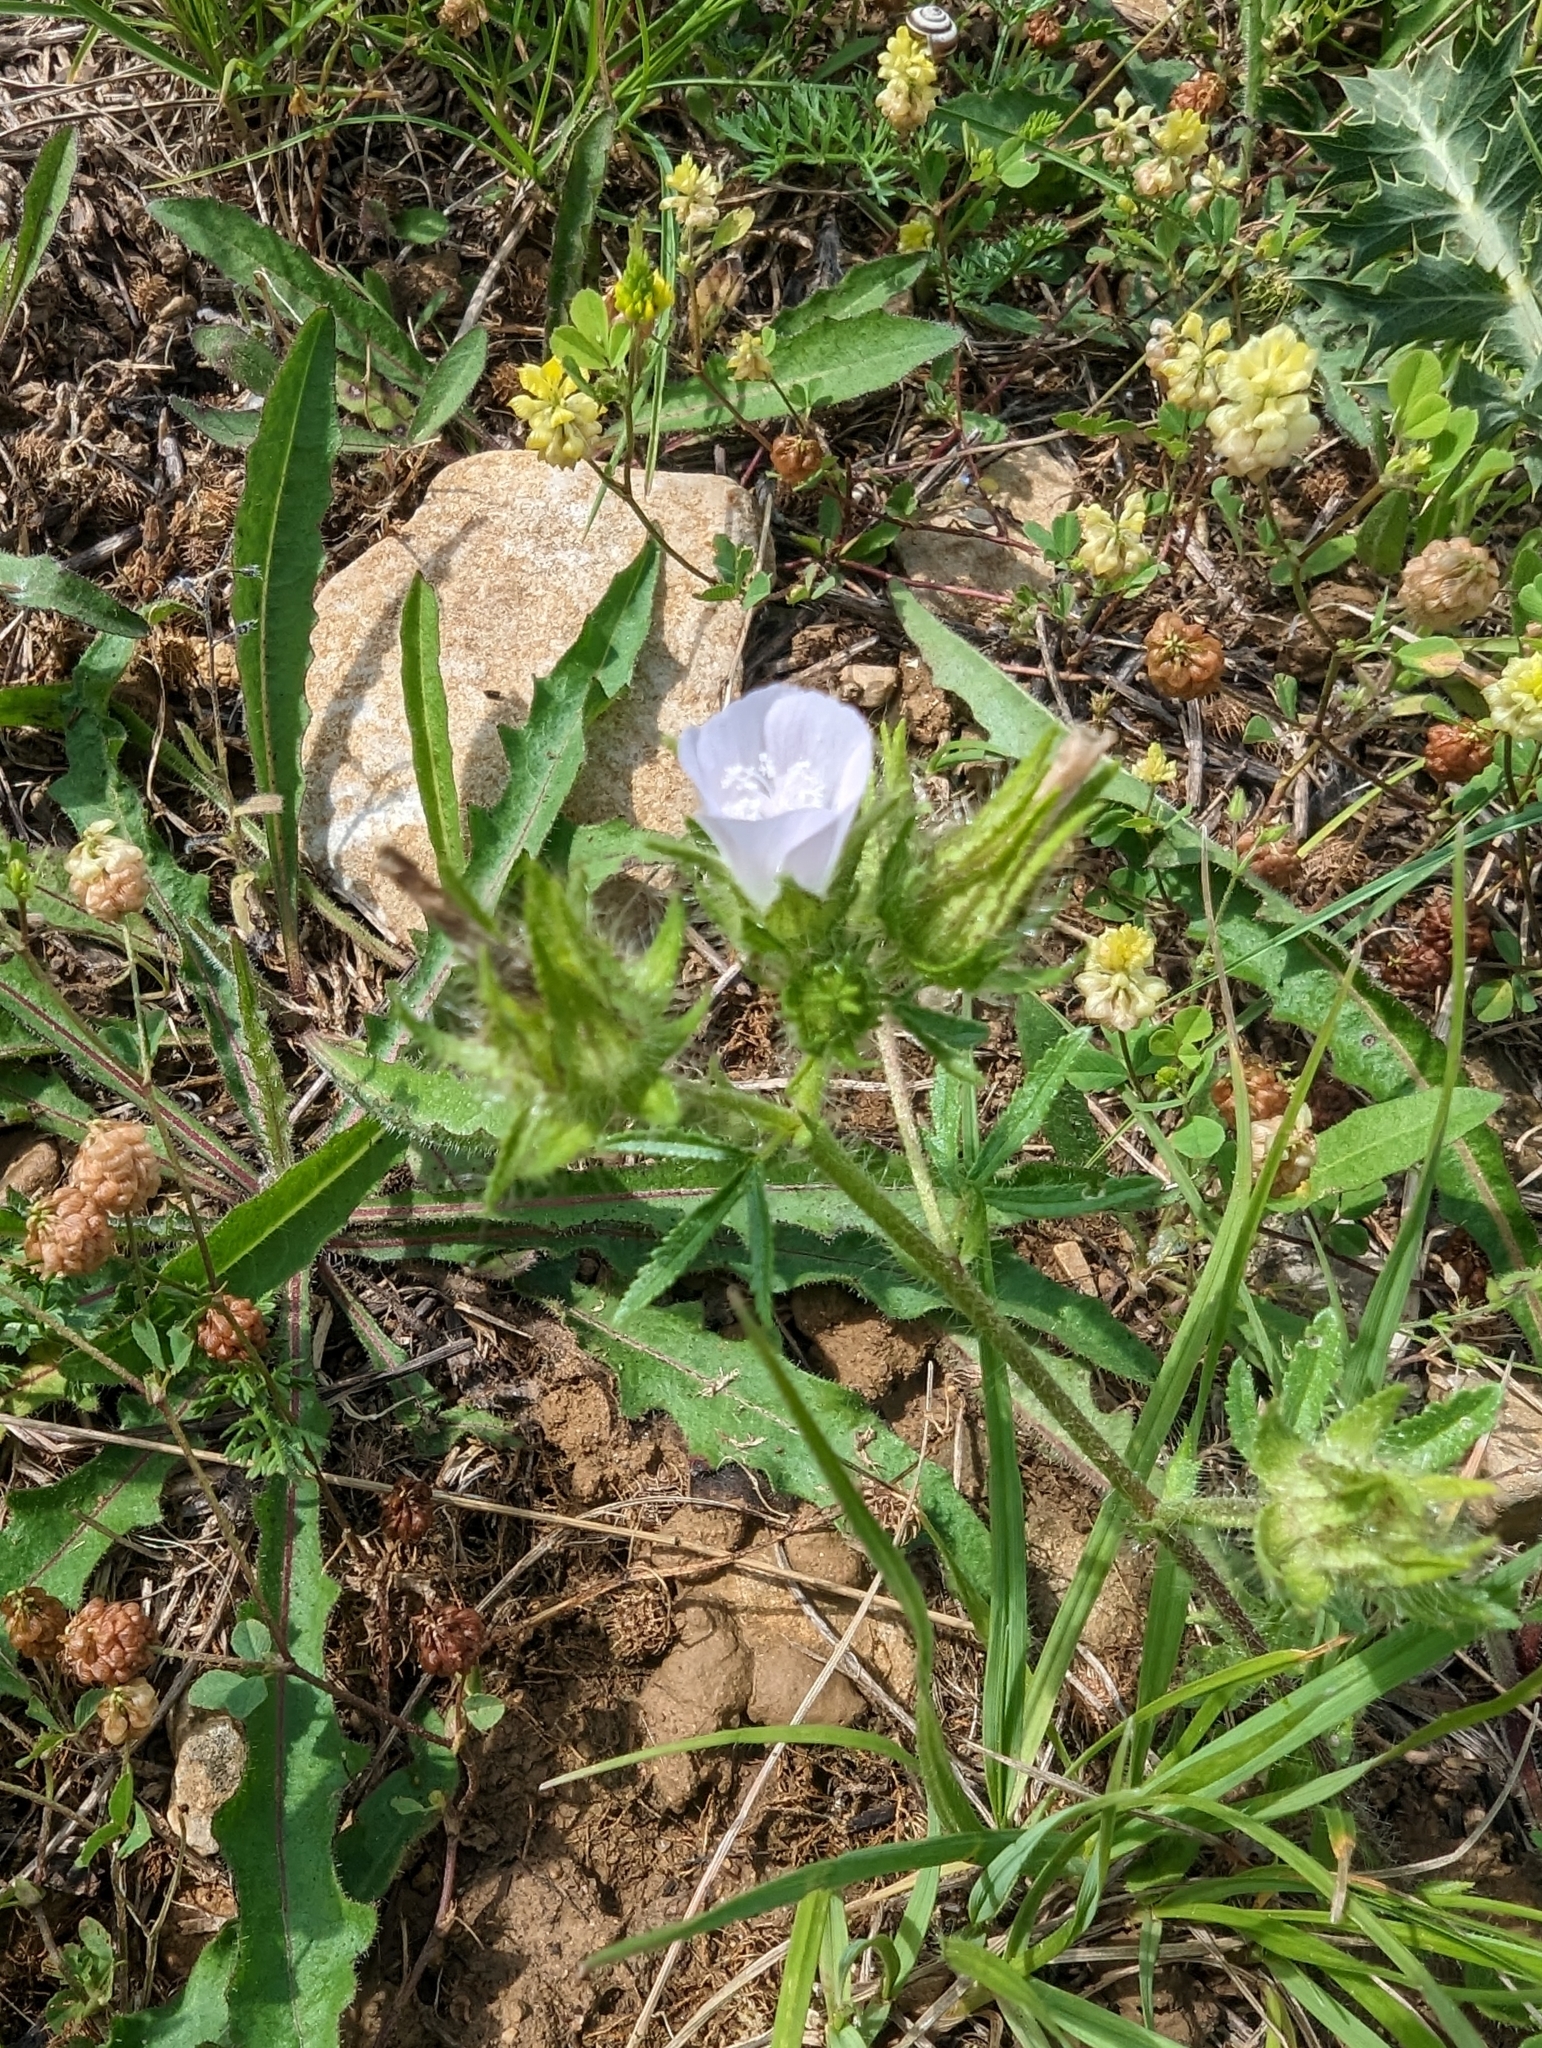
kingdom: Plantae
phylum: Tracheophyta
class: Magnoliopsida
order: Malvales
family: Malvaceae
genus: Althaea
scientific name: Althaea hirsuta
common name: Rough marsh-mallow
